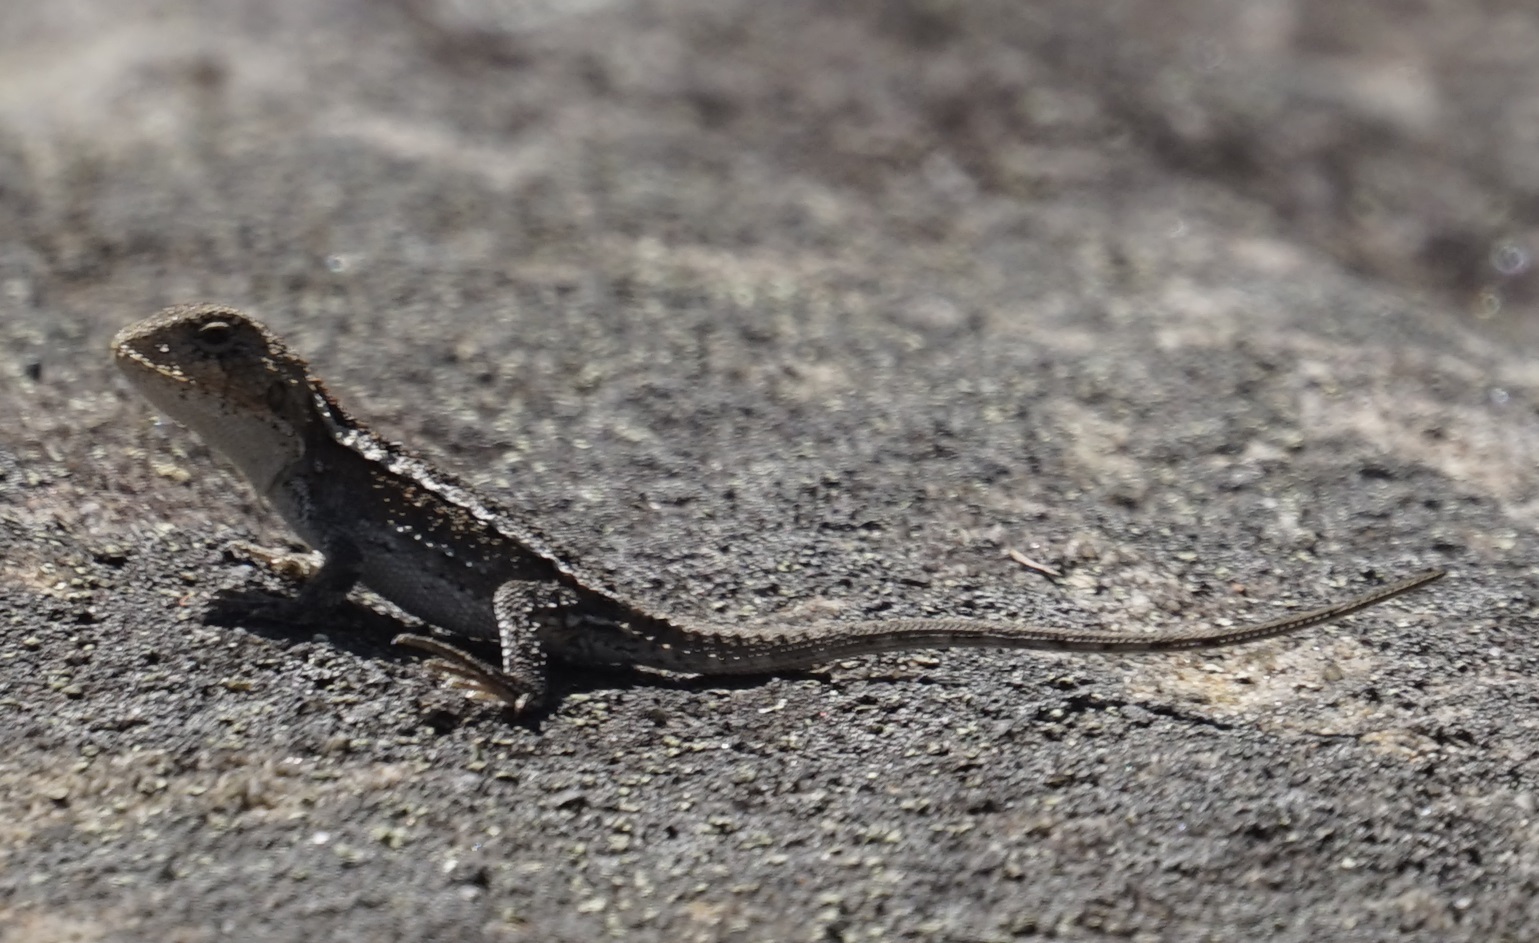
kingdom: Animalia
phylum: Chordata
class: Squamata
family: Agamidae
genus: Rankinia
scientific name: Rankinia diemensis
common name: Mountain dragon
